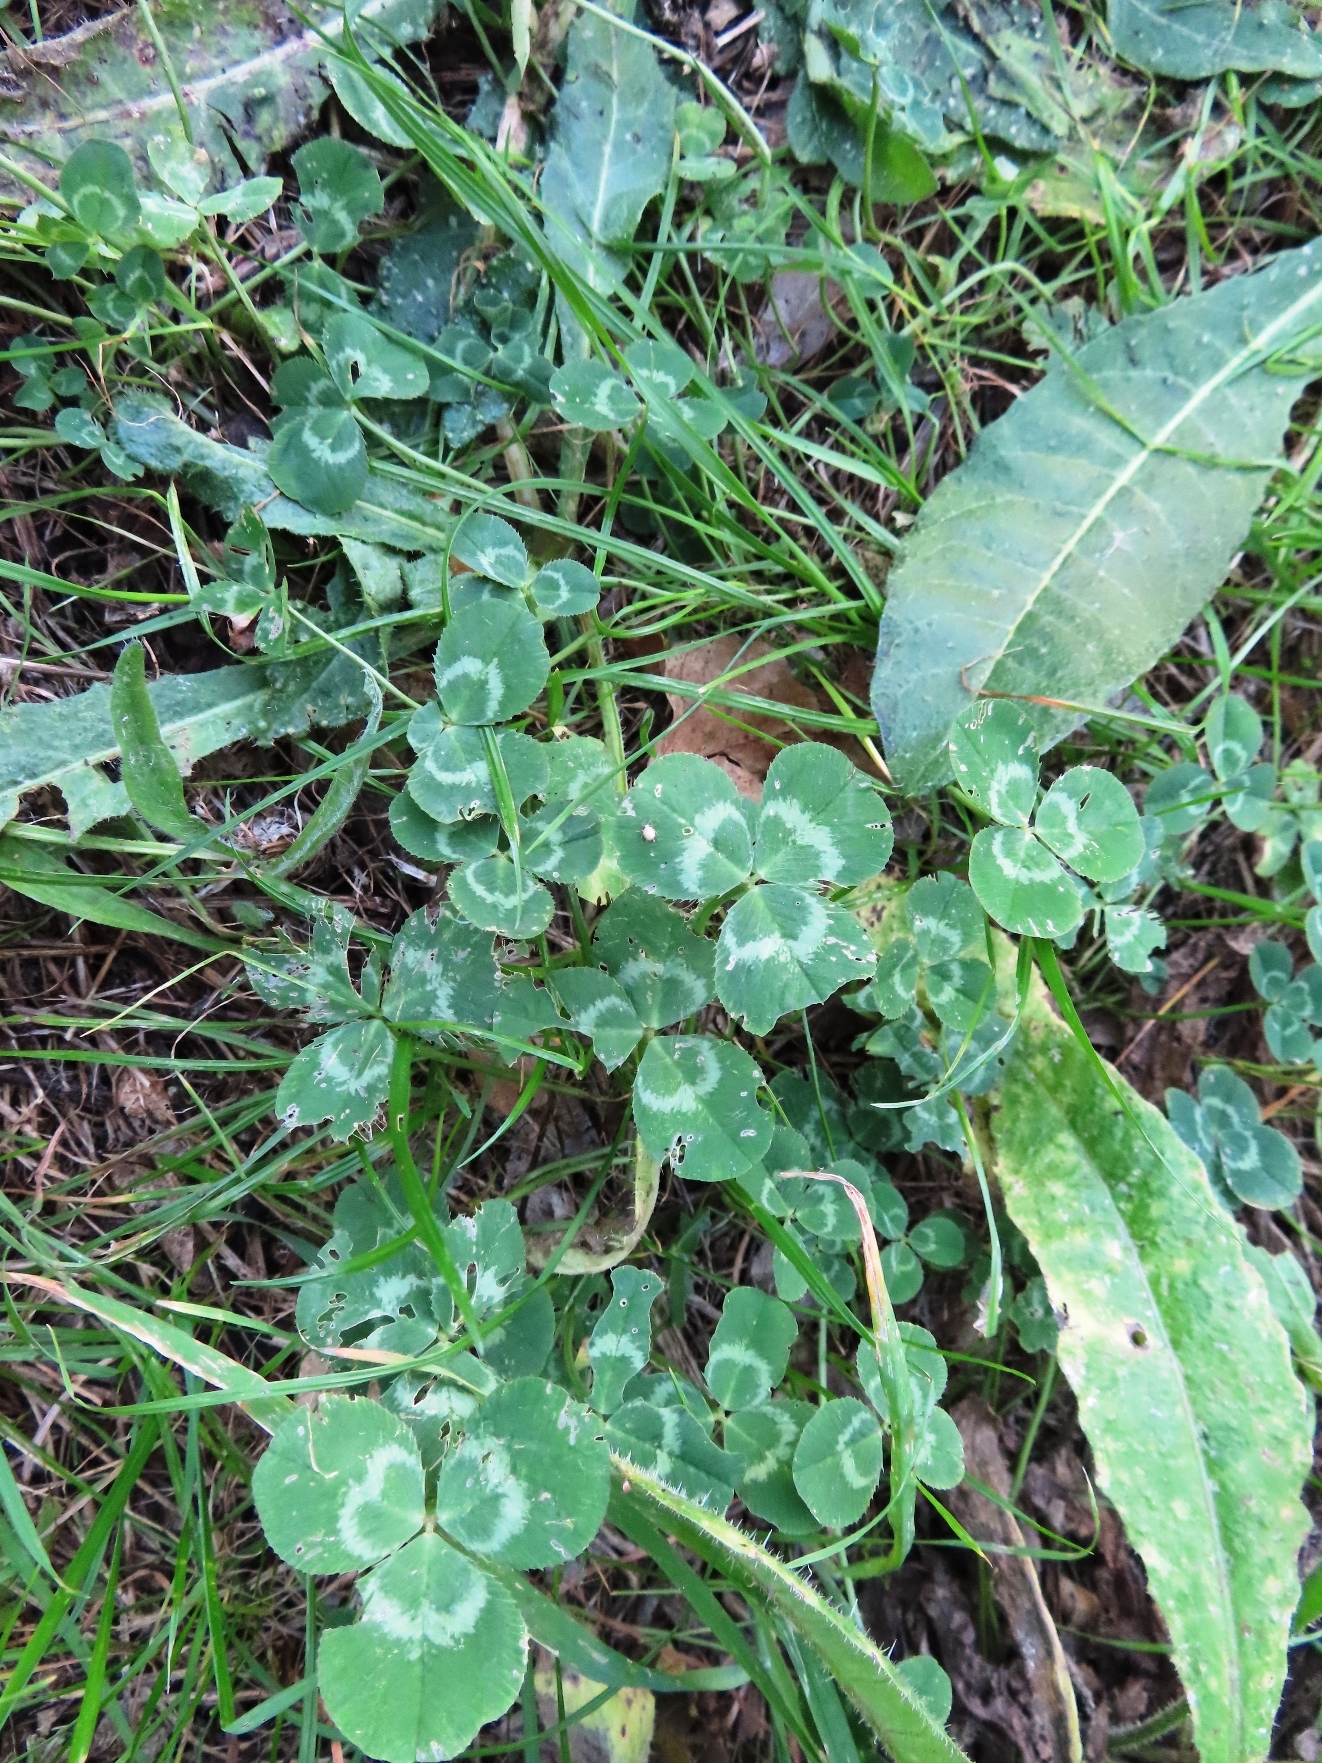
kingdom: Plantae
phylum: Tracheophyta
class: Magnoliopsida
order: Fabales
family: Fabaceae
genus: Trifolium
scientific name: Trifolium repens
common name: White clover
